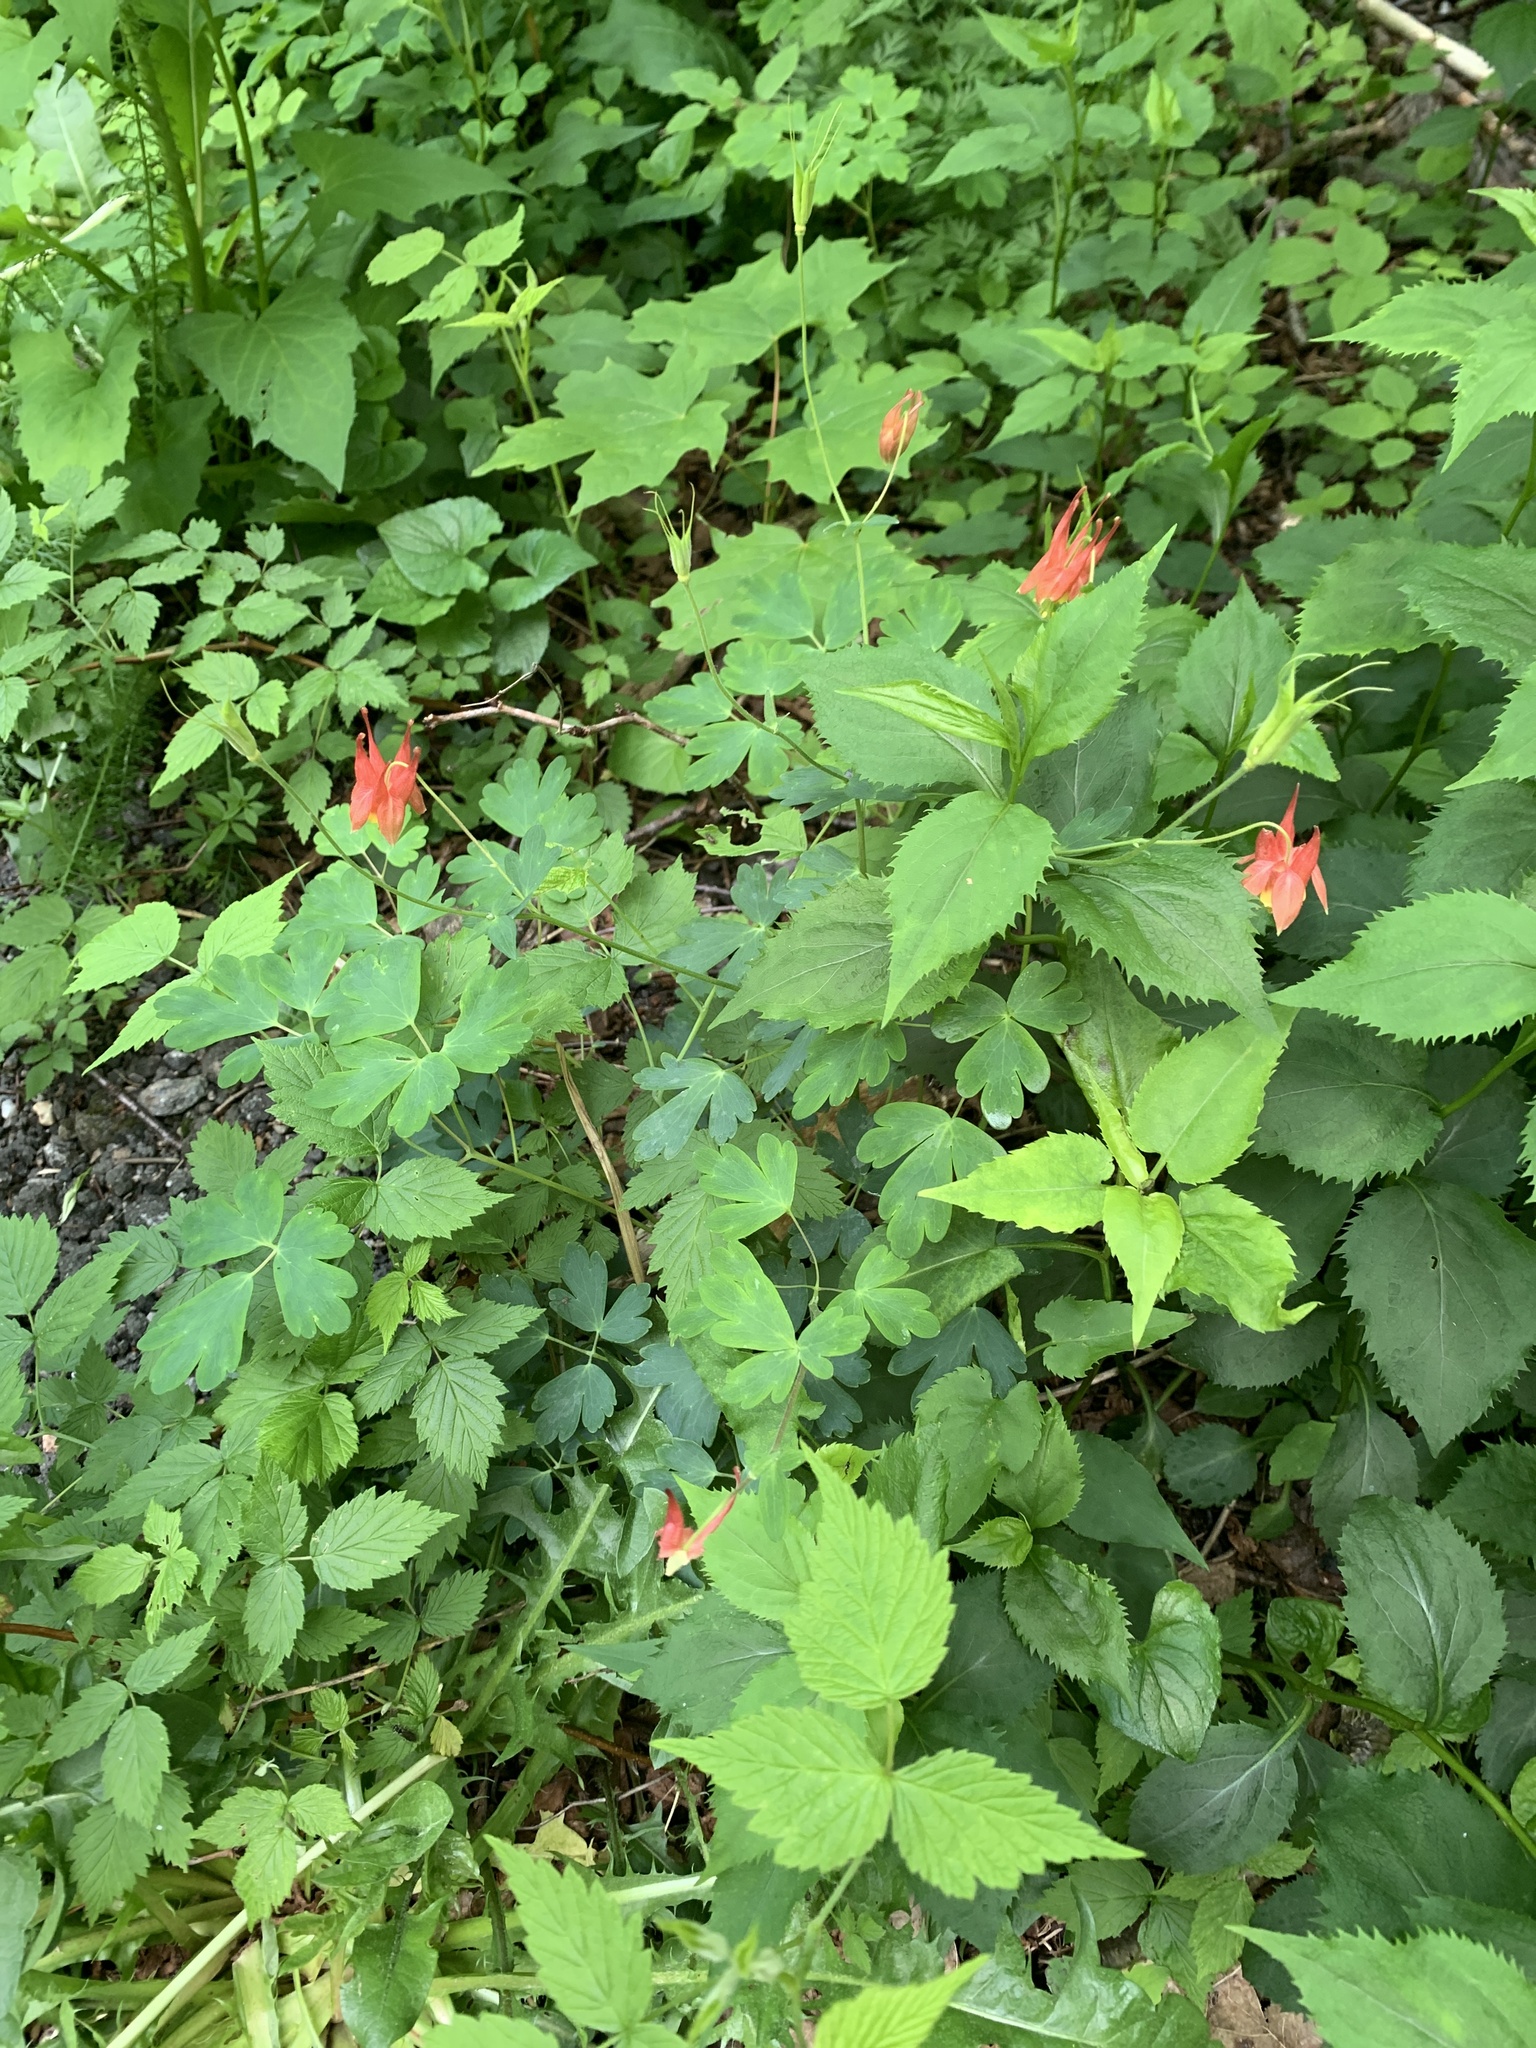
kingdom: Plantae
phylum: Tracheophyta
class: Magnoliopsida
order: Ranunculales
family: Ranunculaceae
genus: Aquilegia
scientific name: Aquilegia canadensis
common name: American columbine
